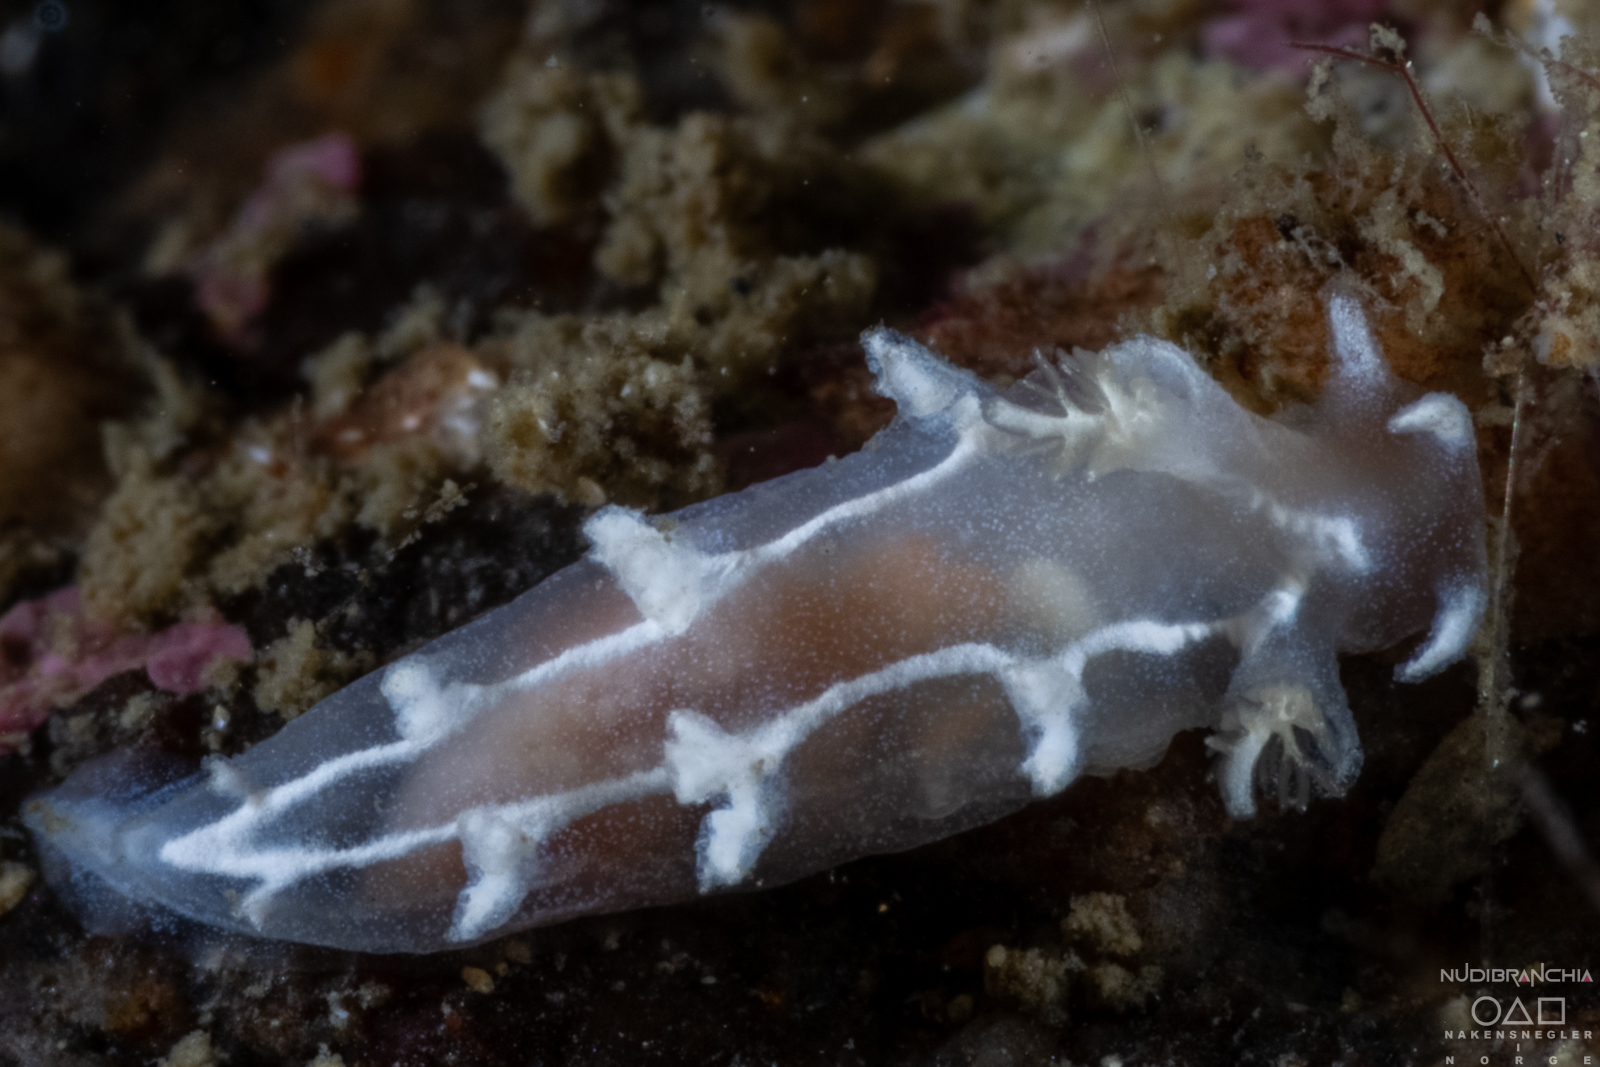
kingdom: Animalia
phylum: Mollusca
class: Gastropoda
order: Nudibranchia
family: Tritoniidae
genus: Duvaucelia
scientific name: Duvaucelia lineata
